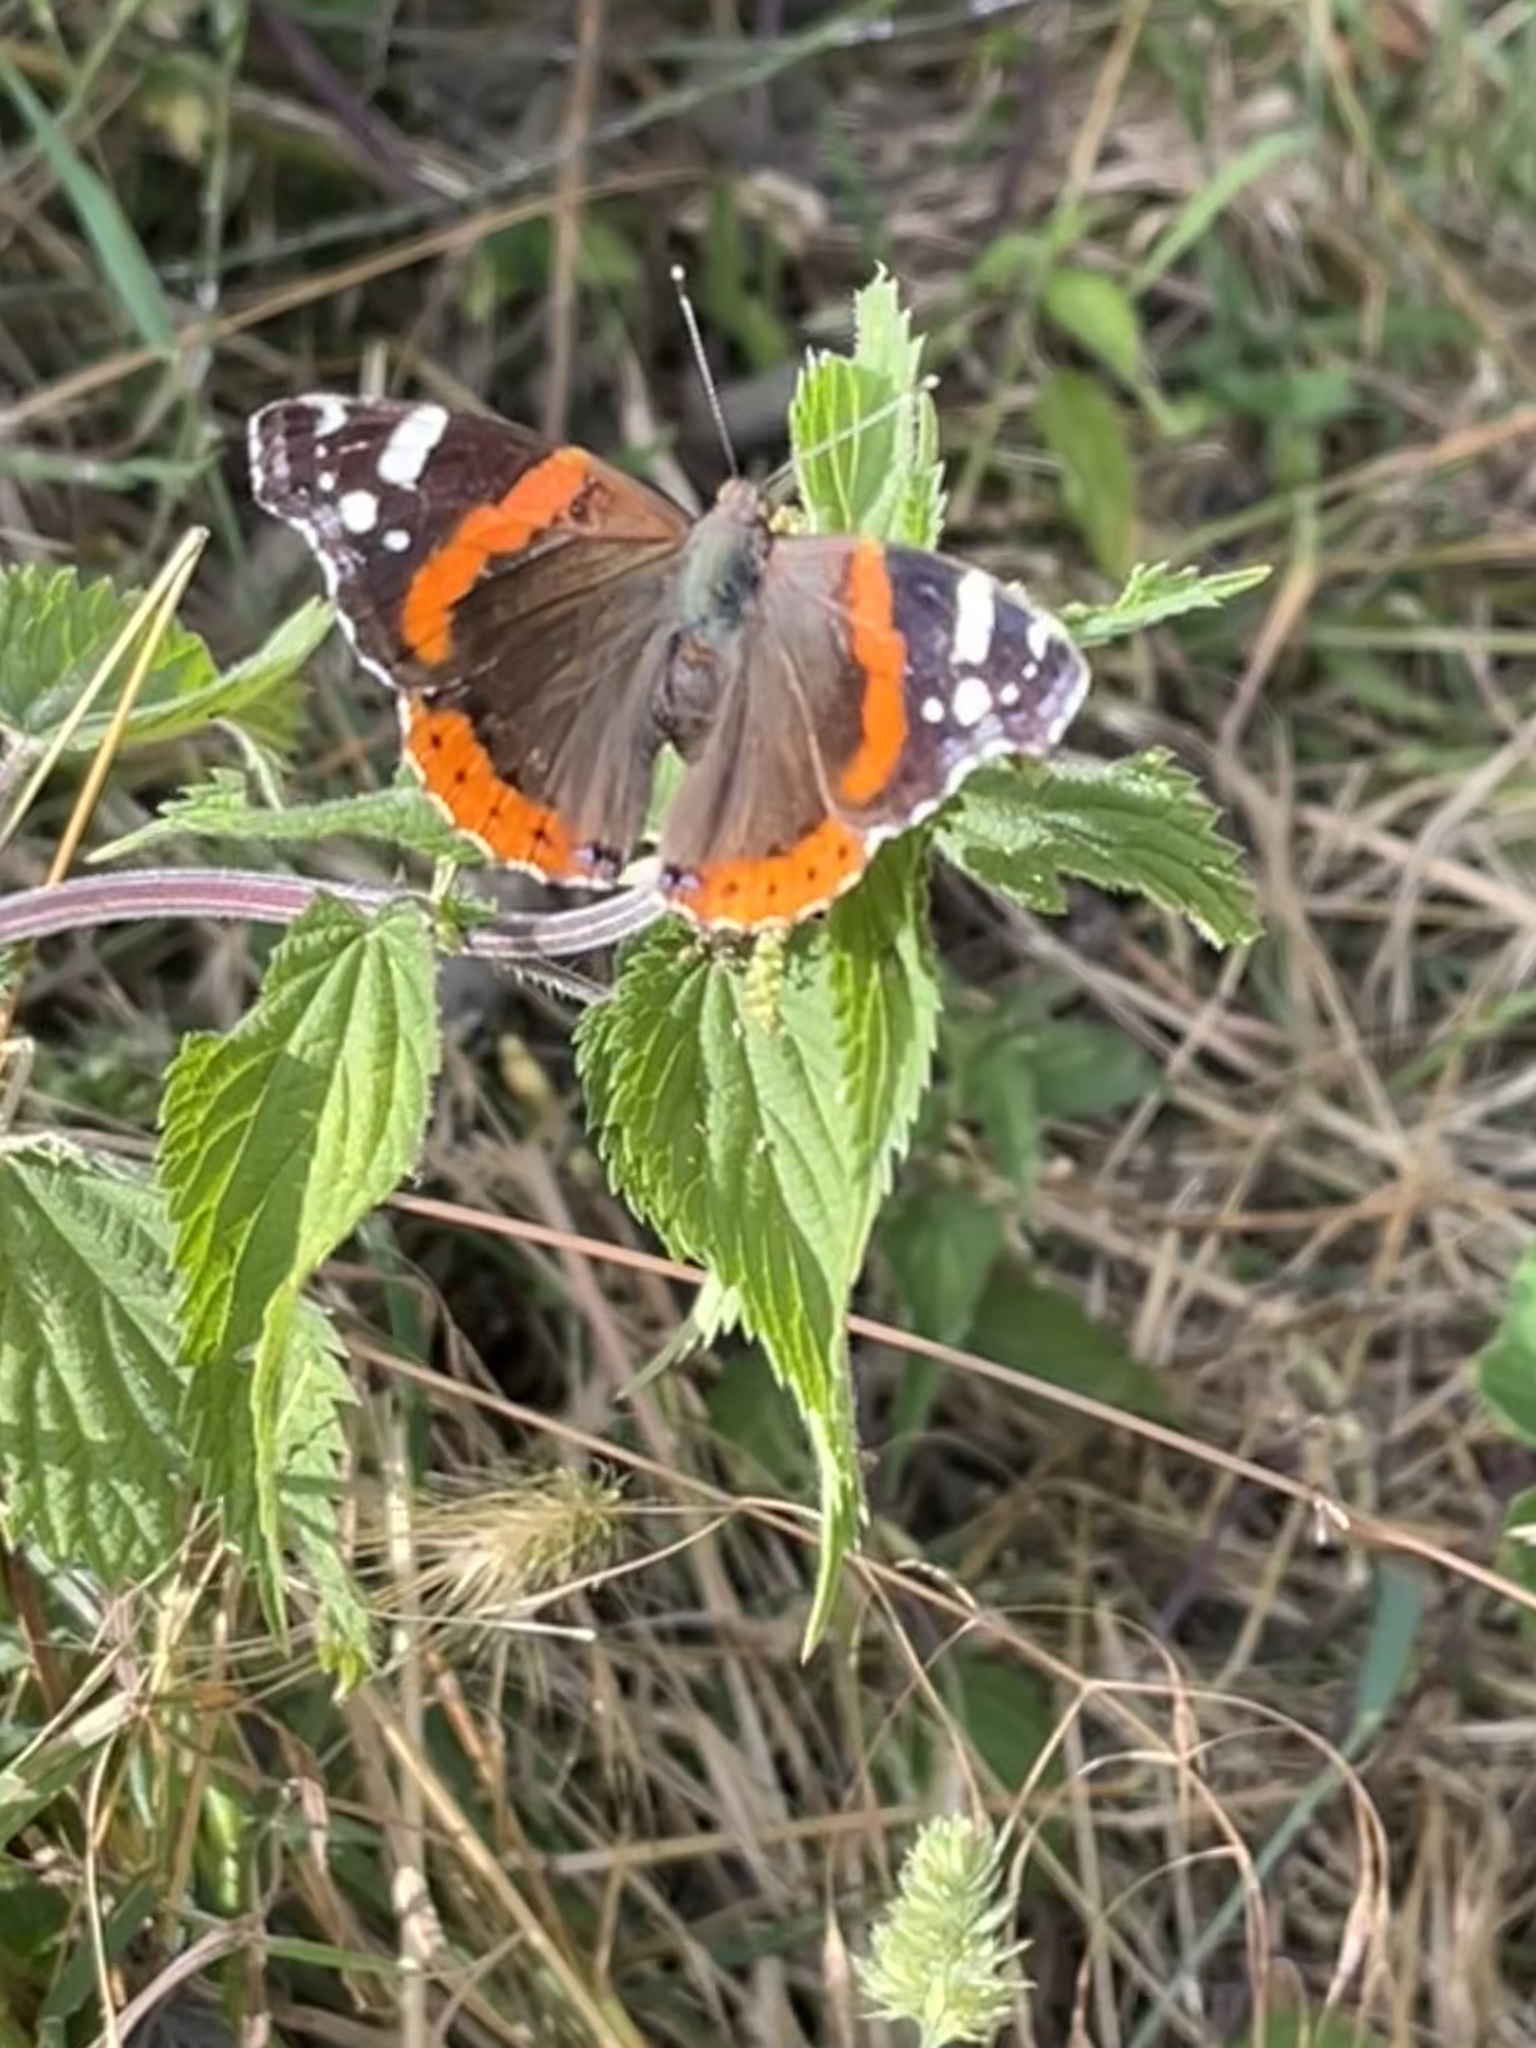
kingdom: Animalia
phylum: Arthropoda
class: Insecta
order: Lepidoptera
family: Nymphalidae
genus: Vanessa
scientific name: Vanessa atalanta
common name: Red admiral
